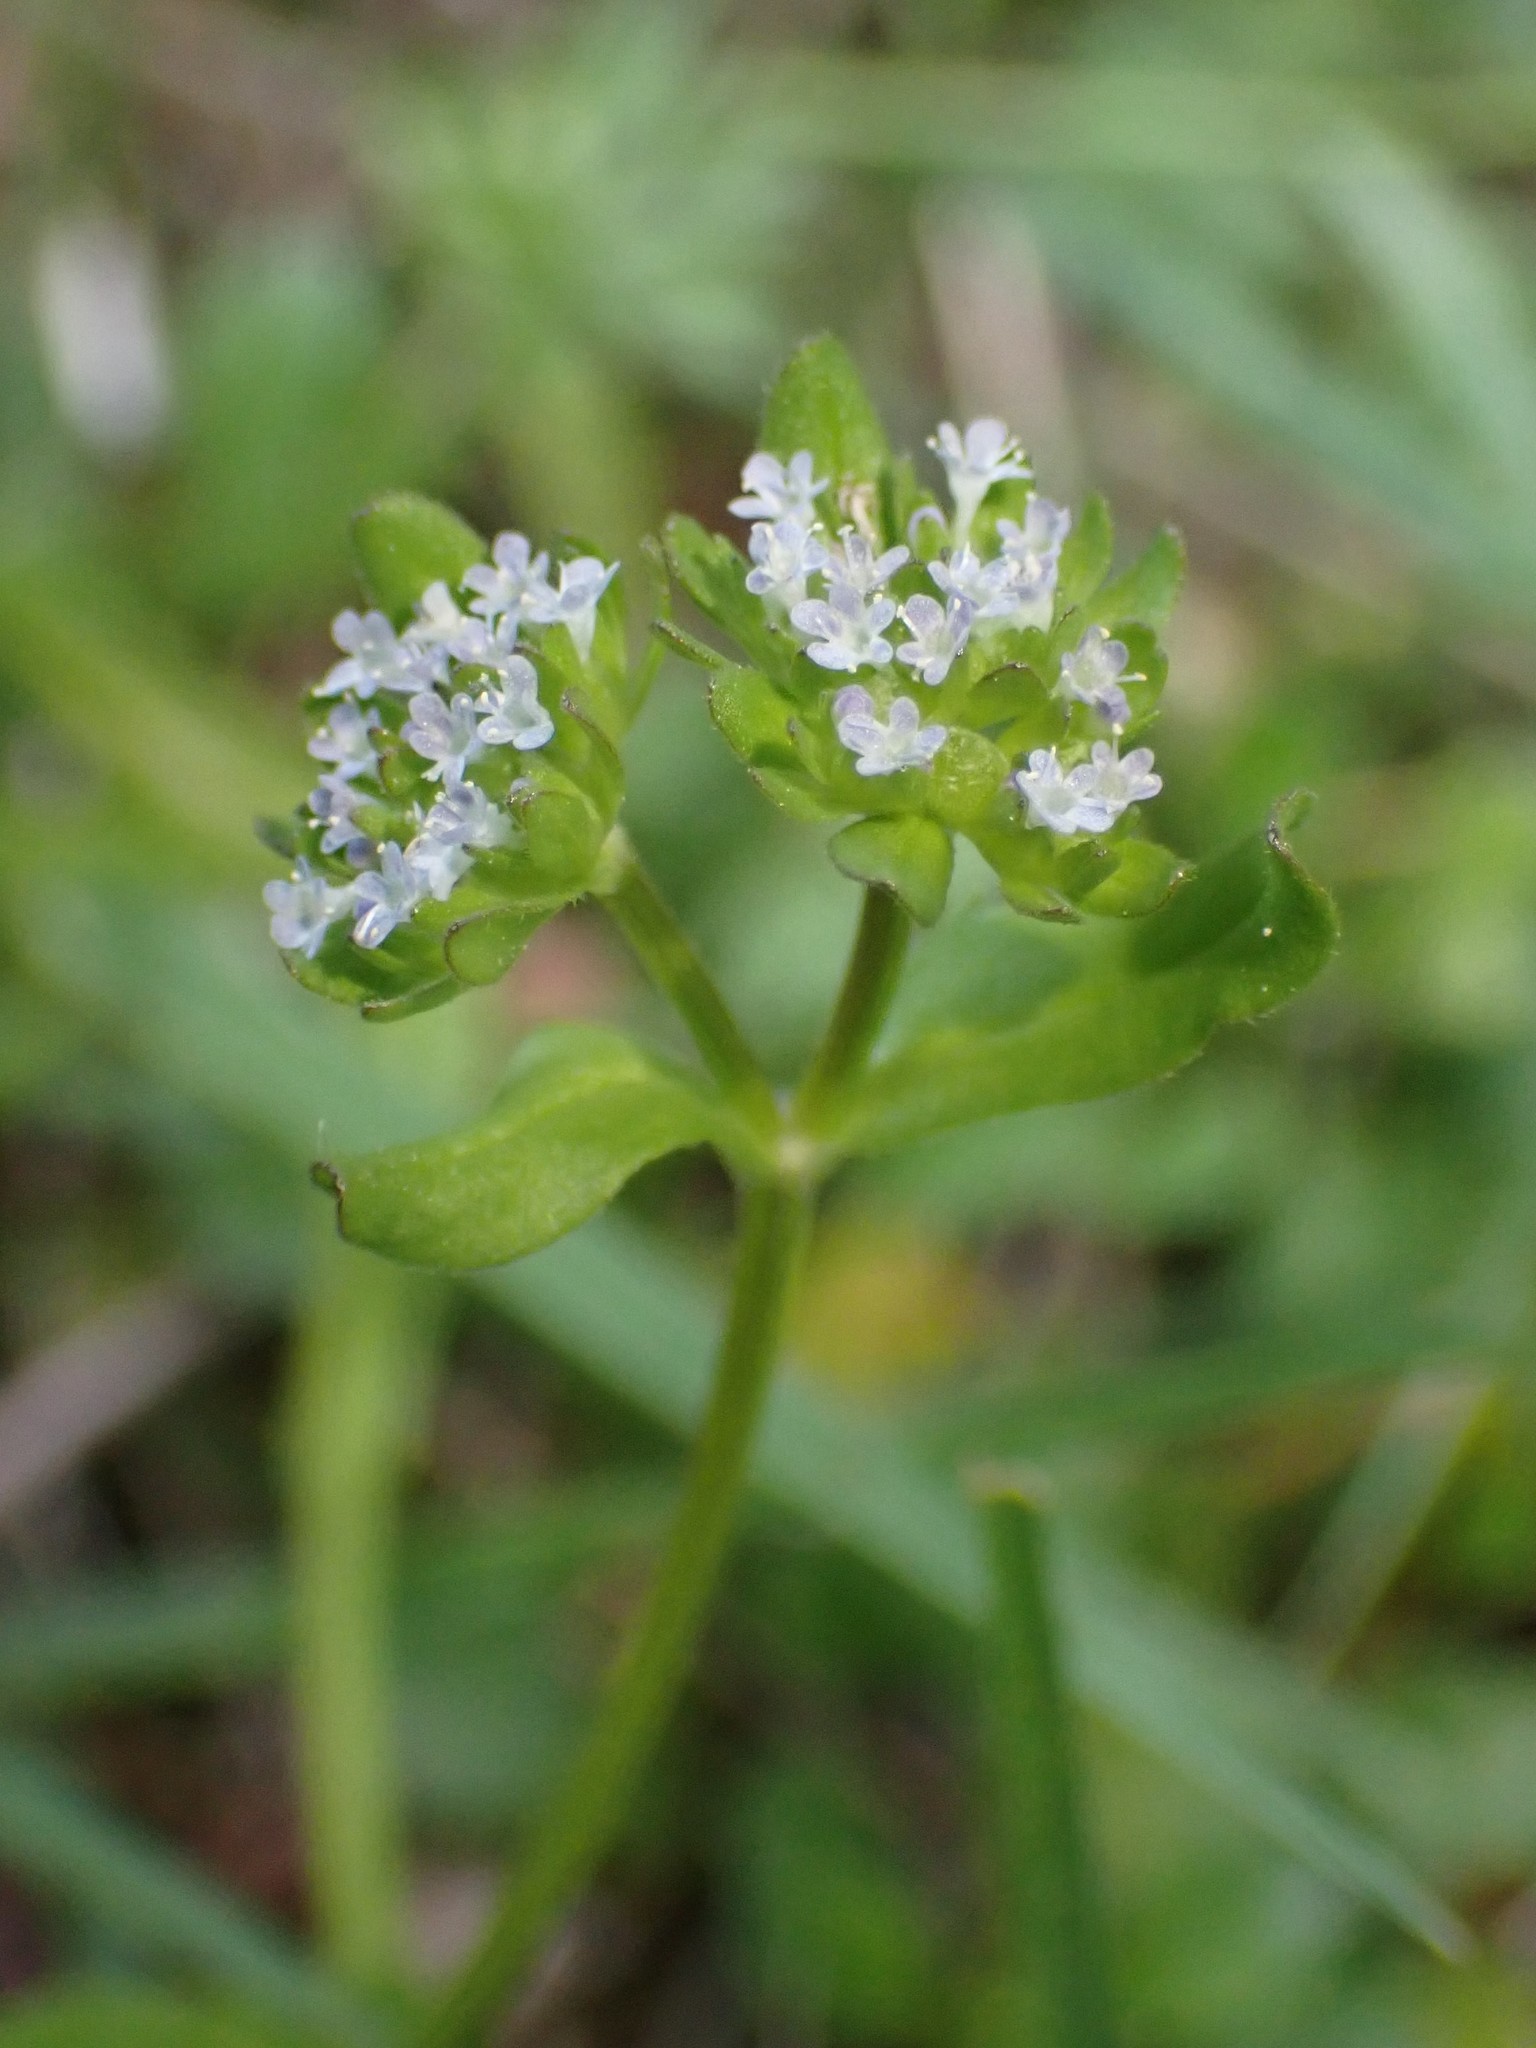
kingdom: Plantae
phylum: Tracheophyta
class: Magnoliopsida
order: Dipsacales
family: Caprifoliaceae
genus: Valerianella
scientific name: Valerianella locusta
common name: Common cornsalad
